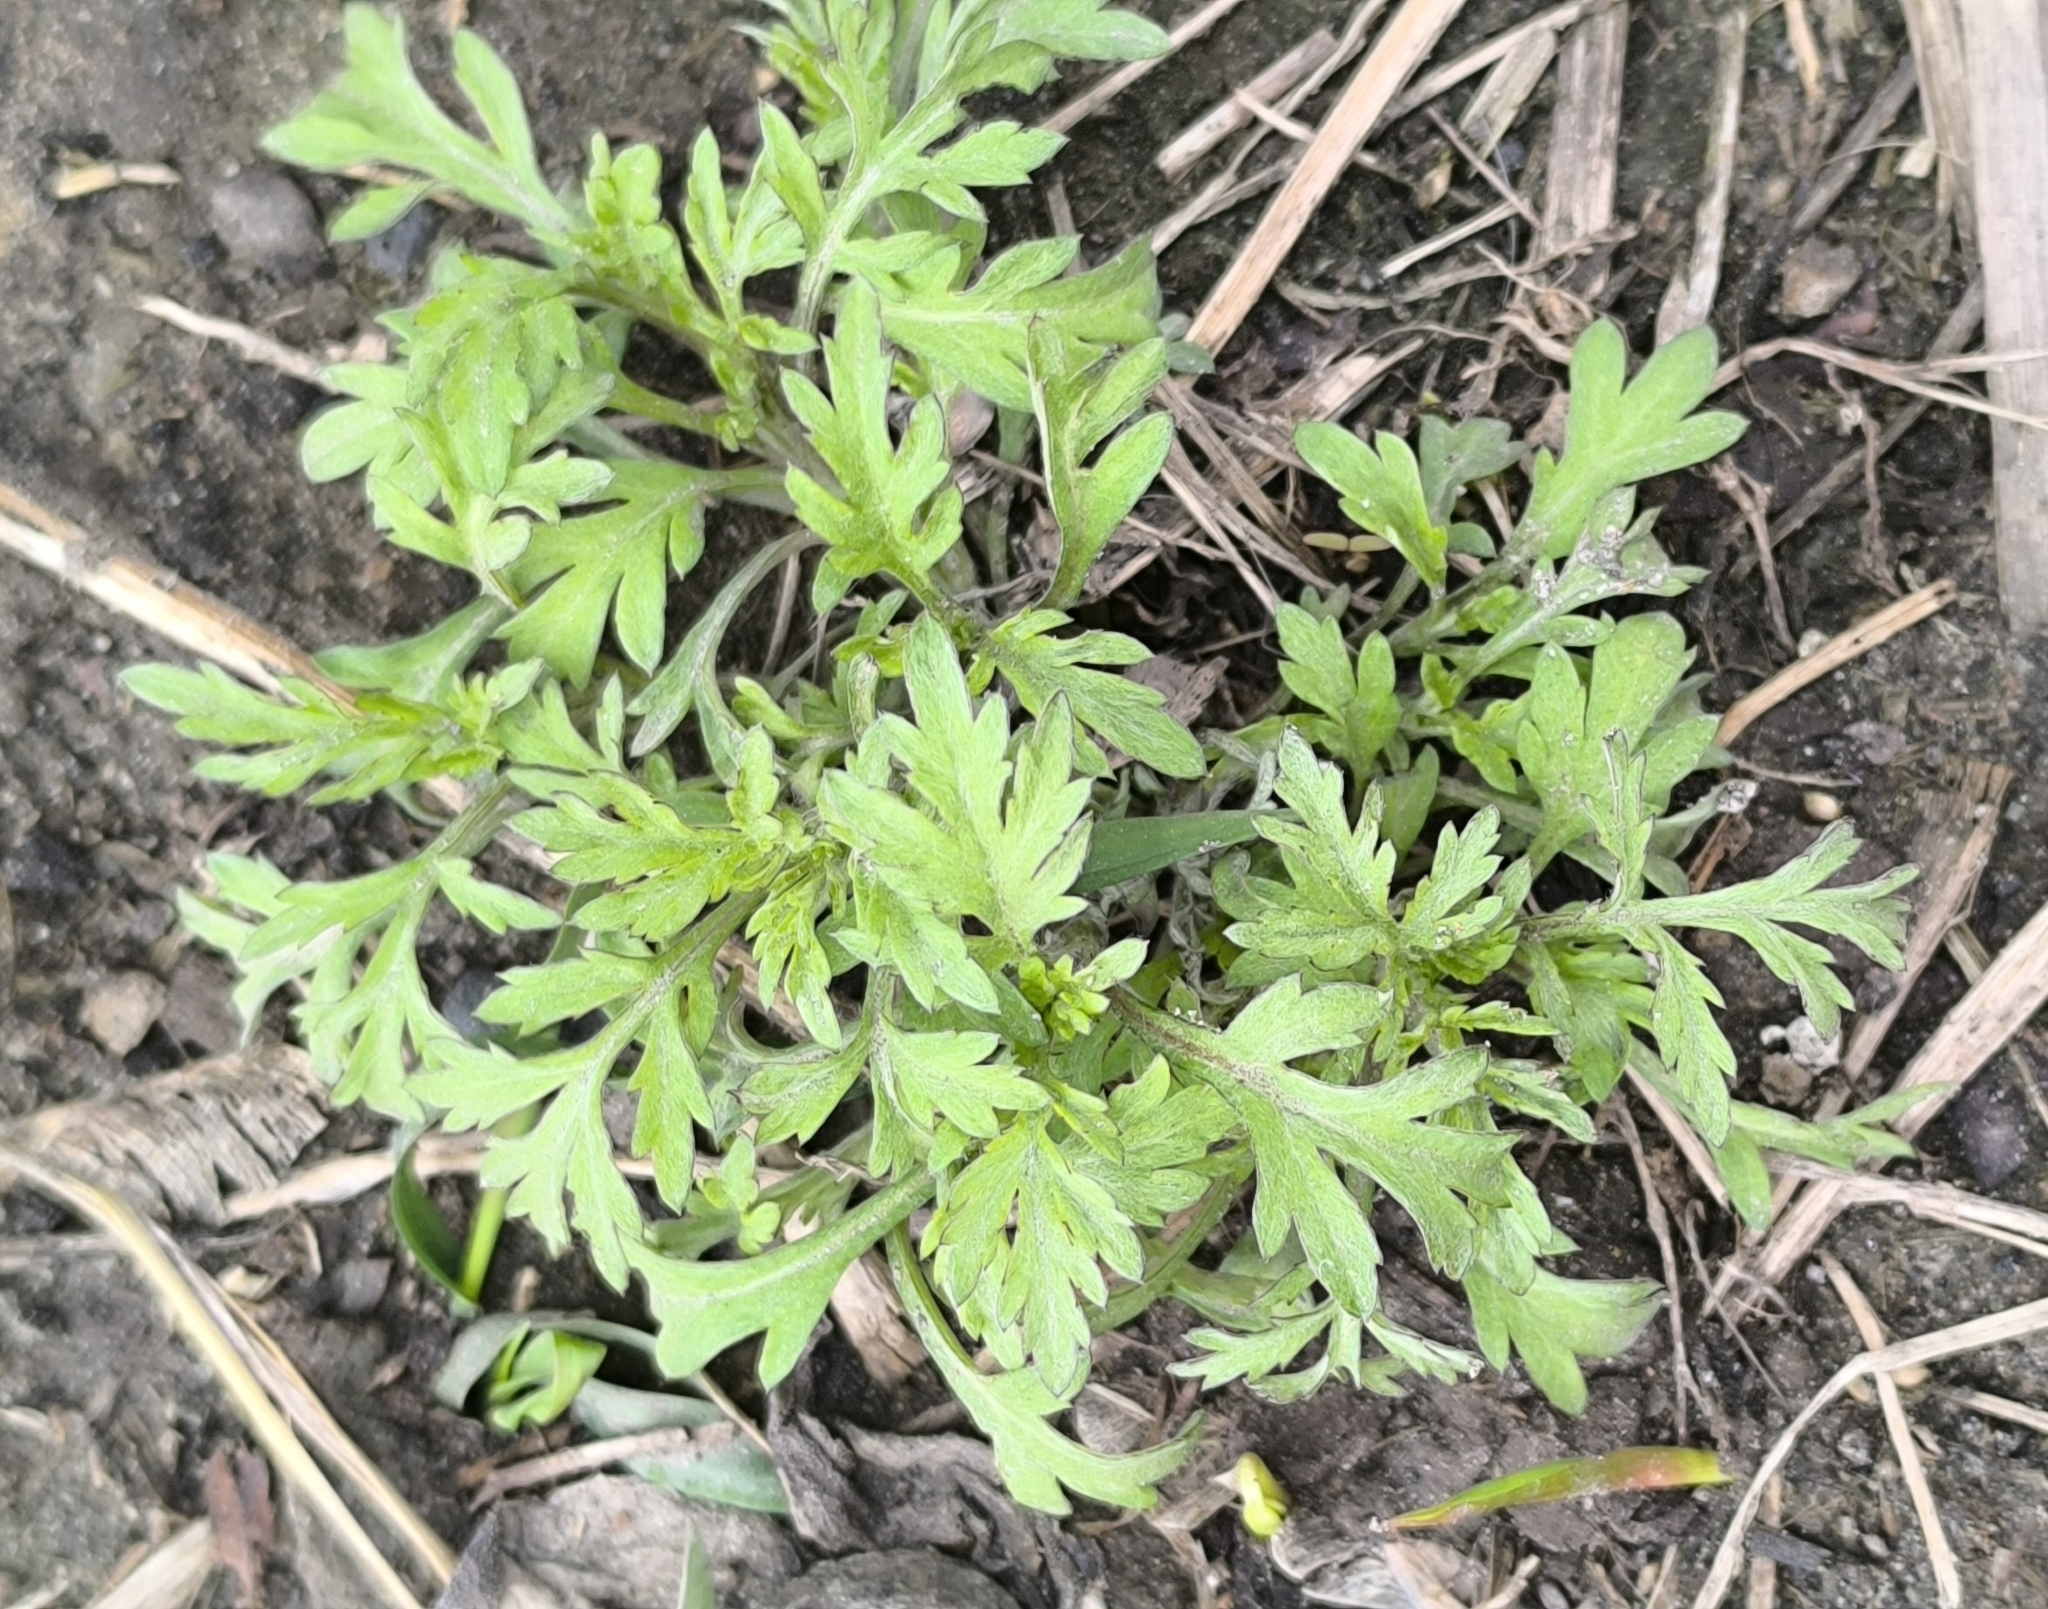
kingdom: Plantae
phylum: Tracheophyta
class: Magnoliopsida
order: Asterales
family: Asteraceae
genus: Artemisia
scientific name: Artemisia vulgaris
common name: Mugwort
